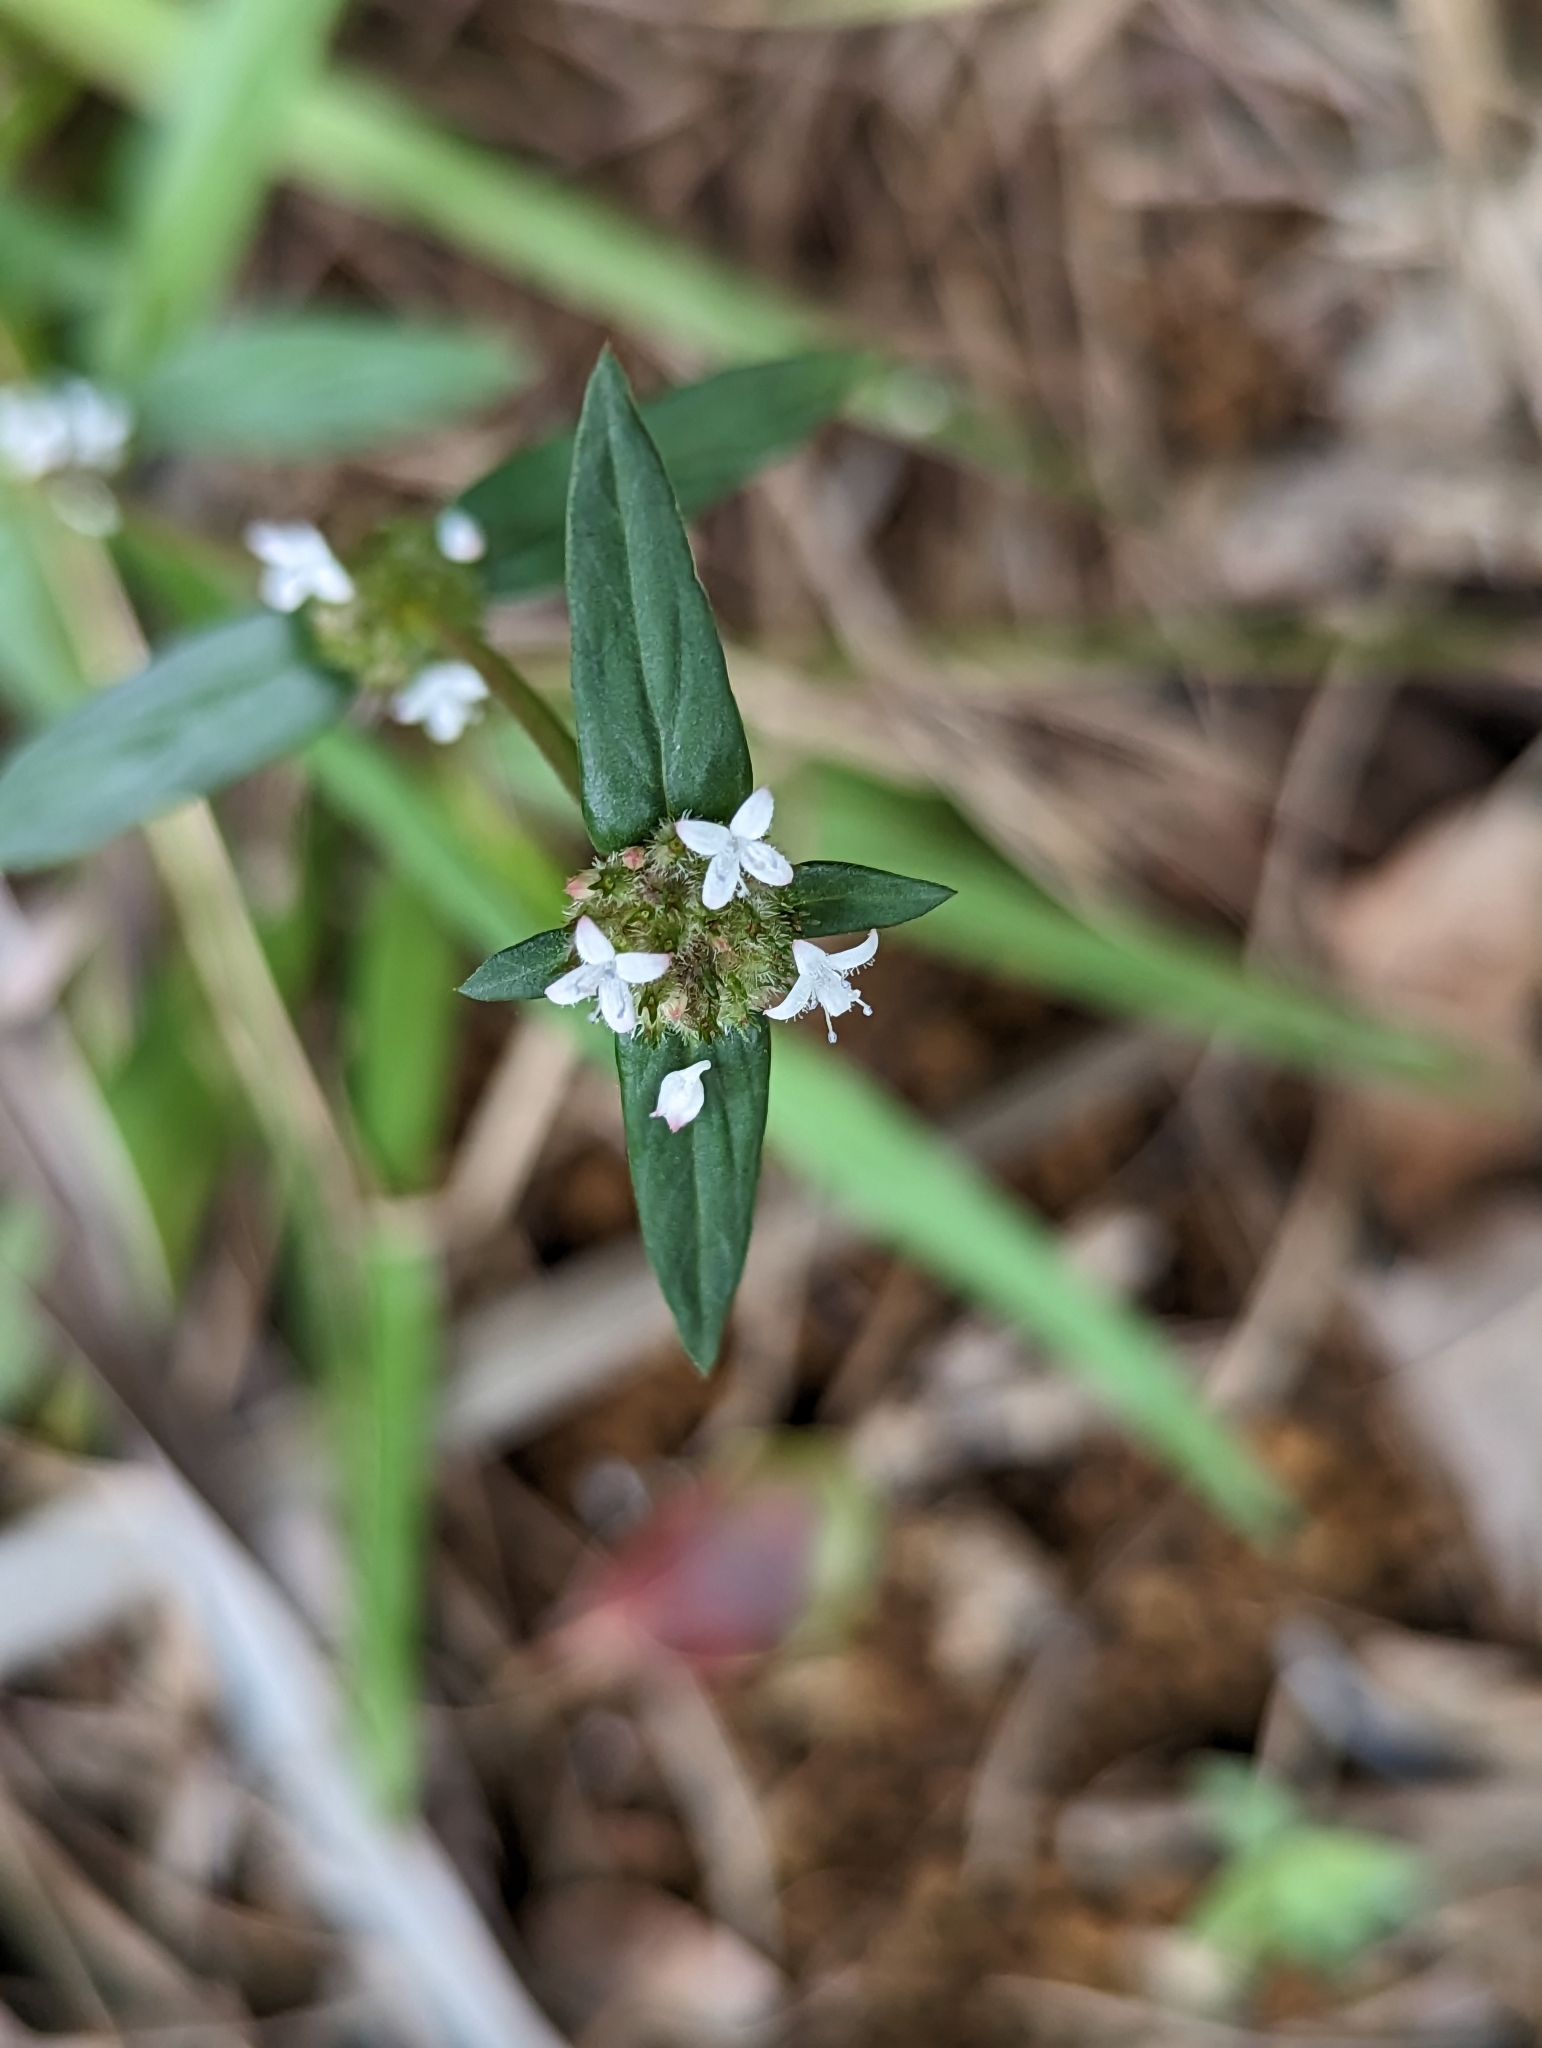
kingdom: Plantae
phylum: Tracheophyta
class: Magnoliopsida
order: Gentianales
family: Rubiaceae
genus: Spermacoce
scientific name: Spermacoce remota
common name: Woodland false buttonweed
